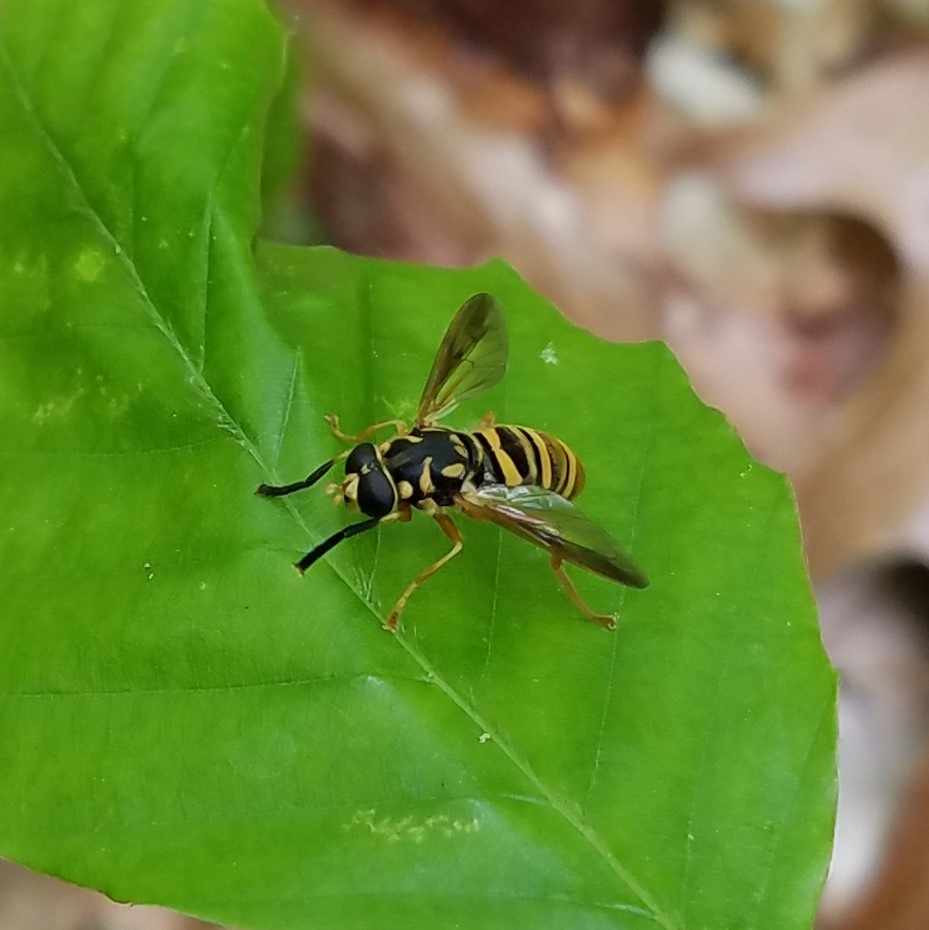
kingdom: Animalia
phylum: Arthropoda
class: Insecta
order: Diptera
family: Syrphidae
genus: Temnostoma
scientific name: Temnostoma daochum
